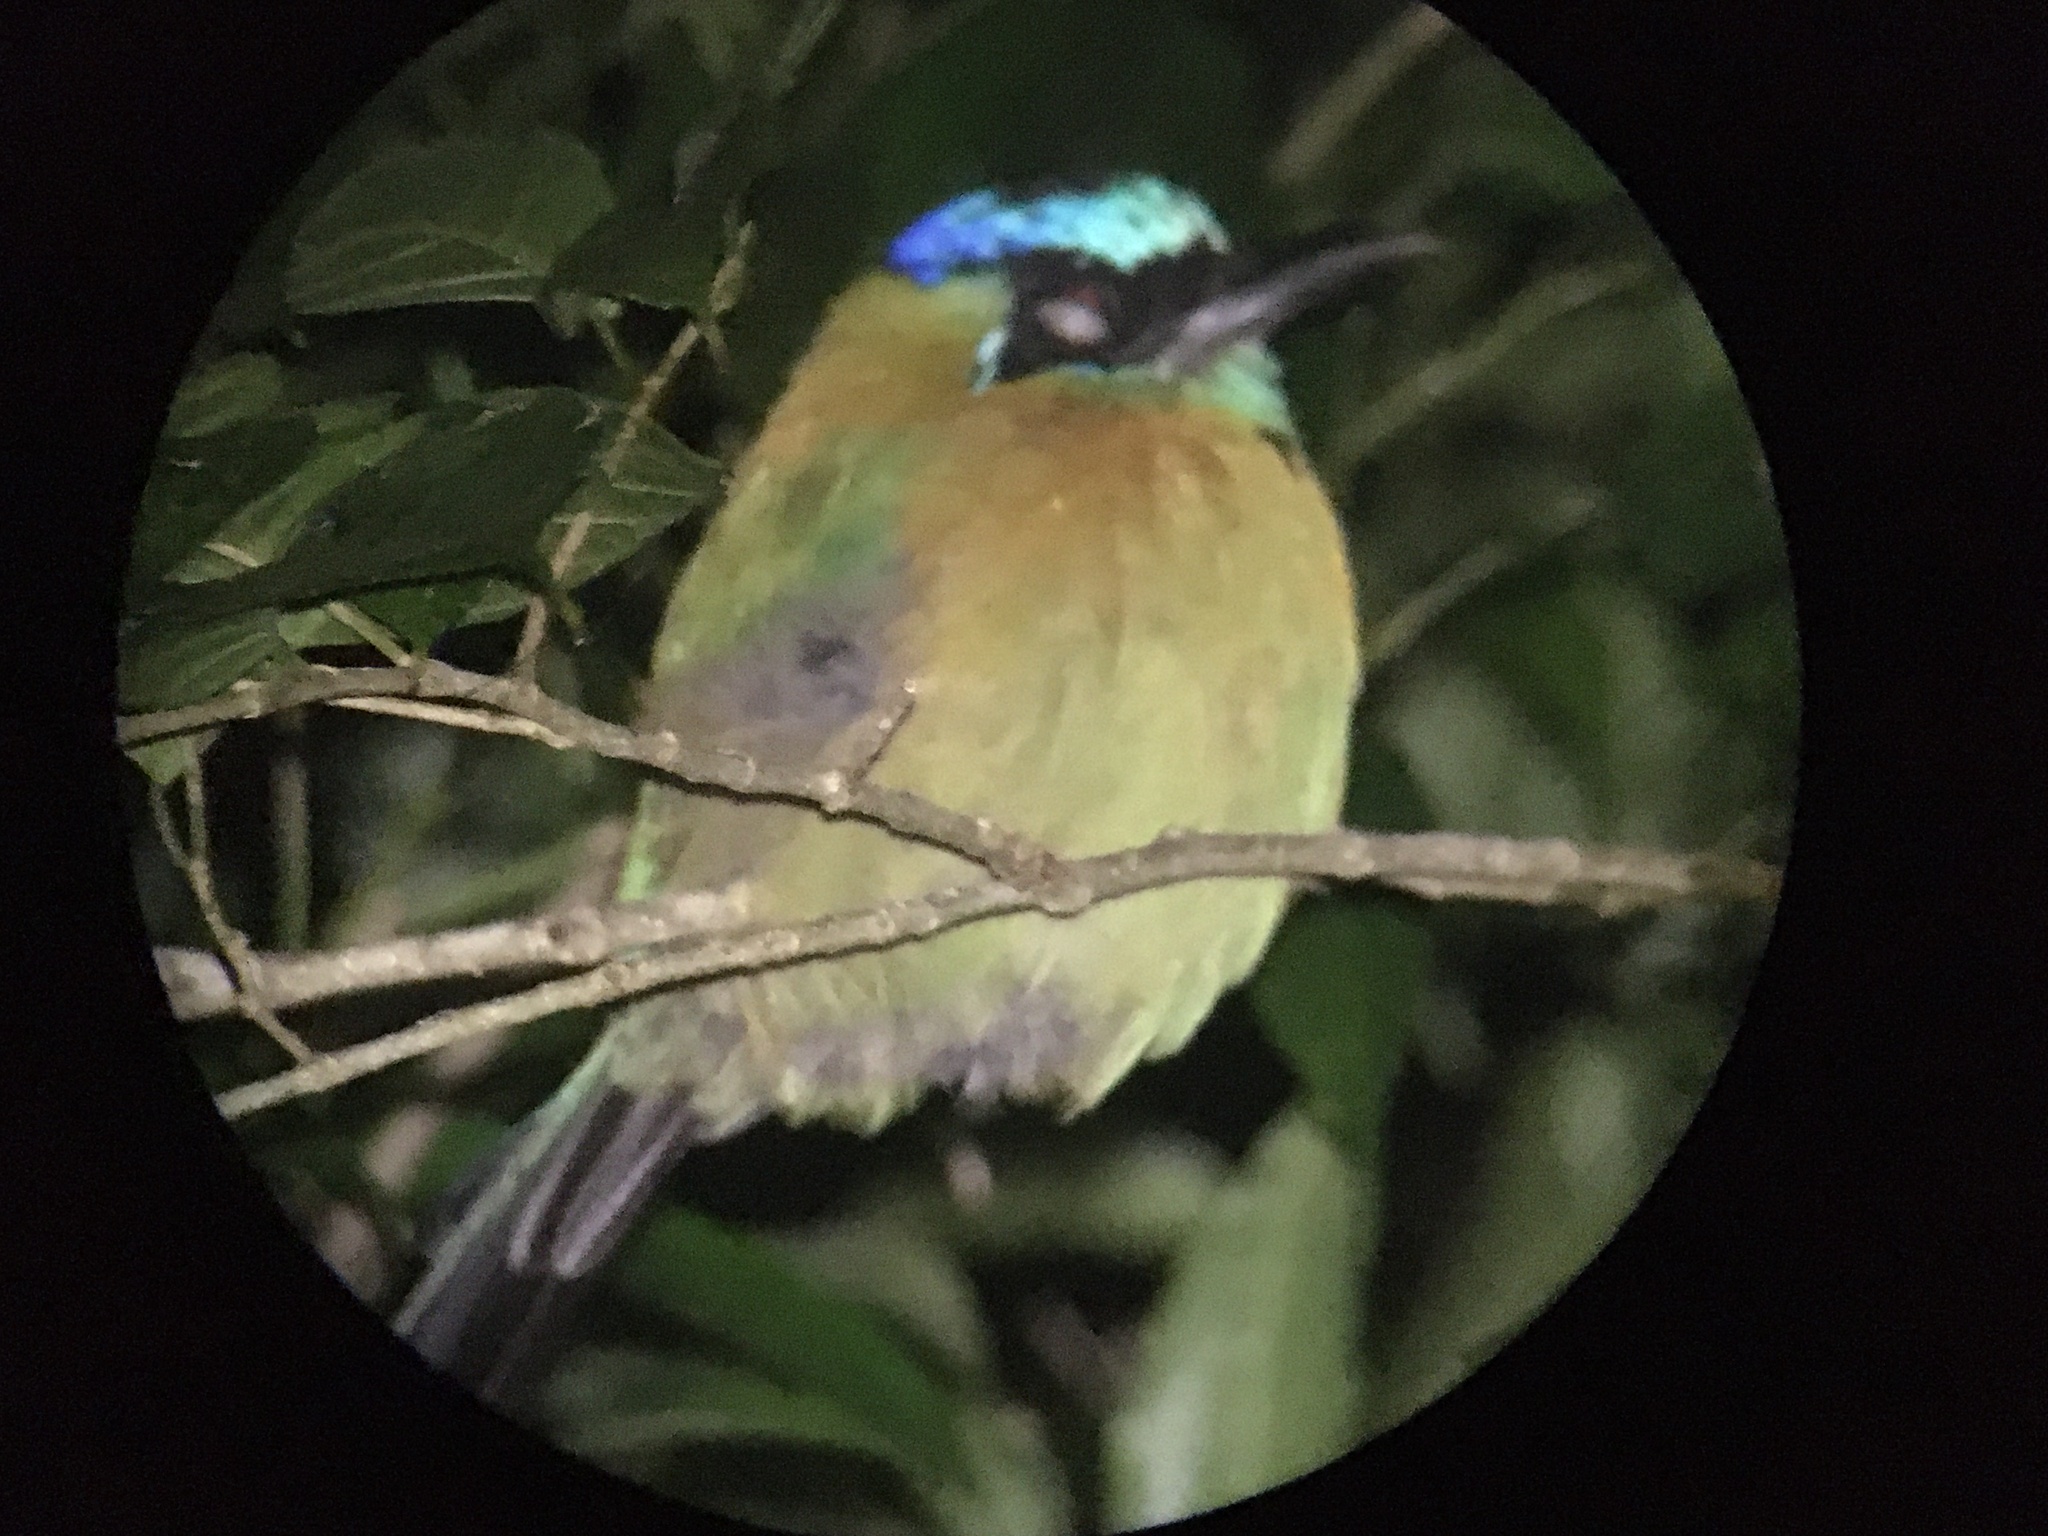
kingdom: Animalia
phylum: Chordata
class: Aves
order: Coraciiformes
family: Momotidae
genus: Momotus
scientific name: Momotus lessonii
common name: Lesson's motmot
